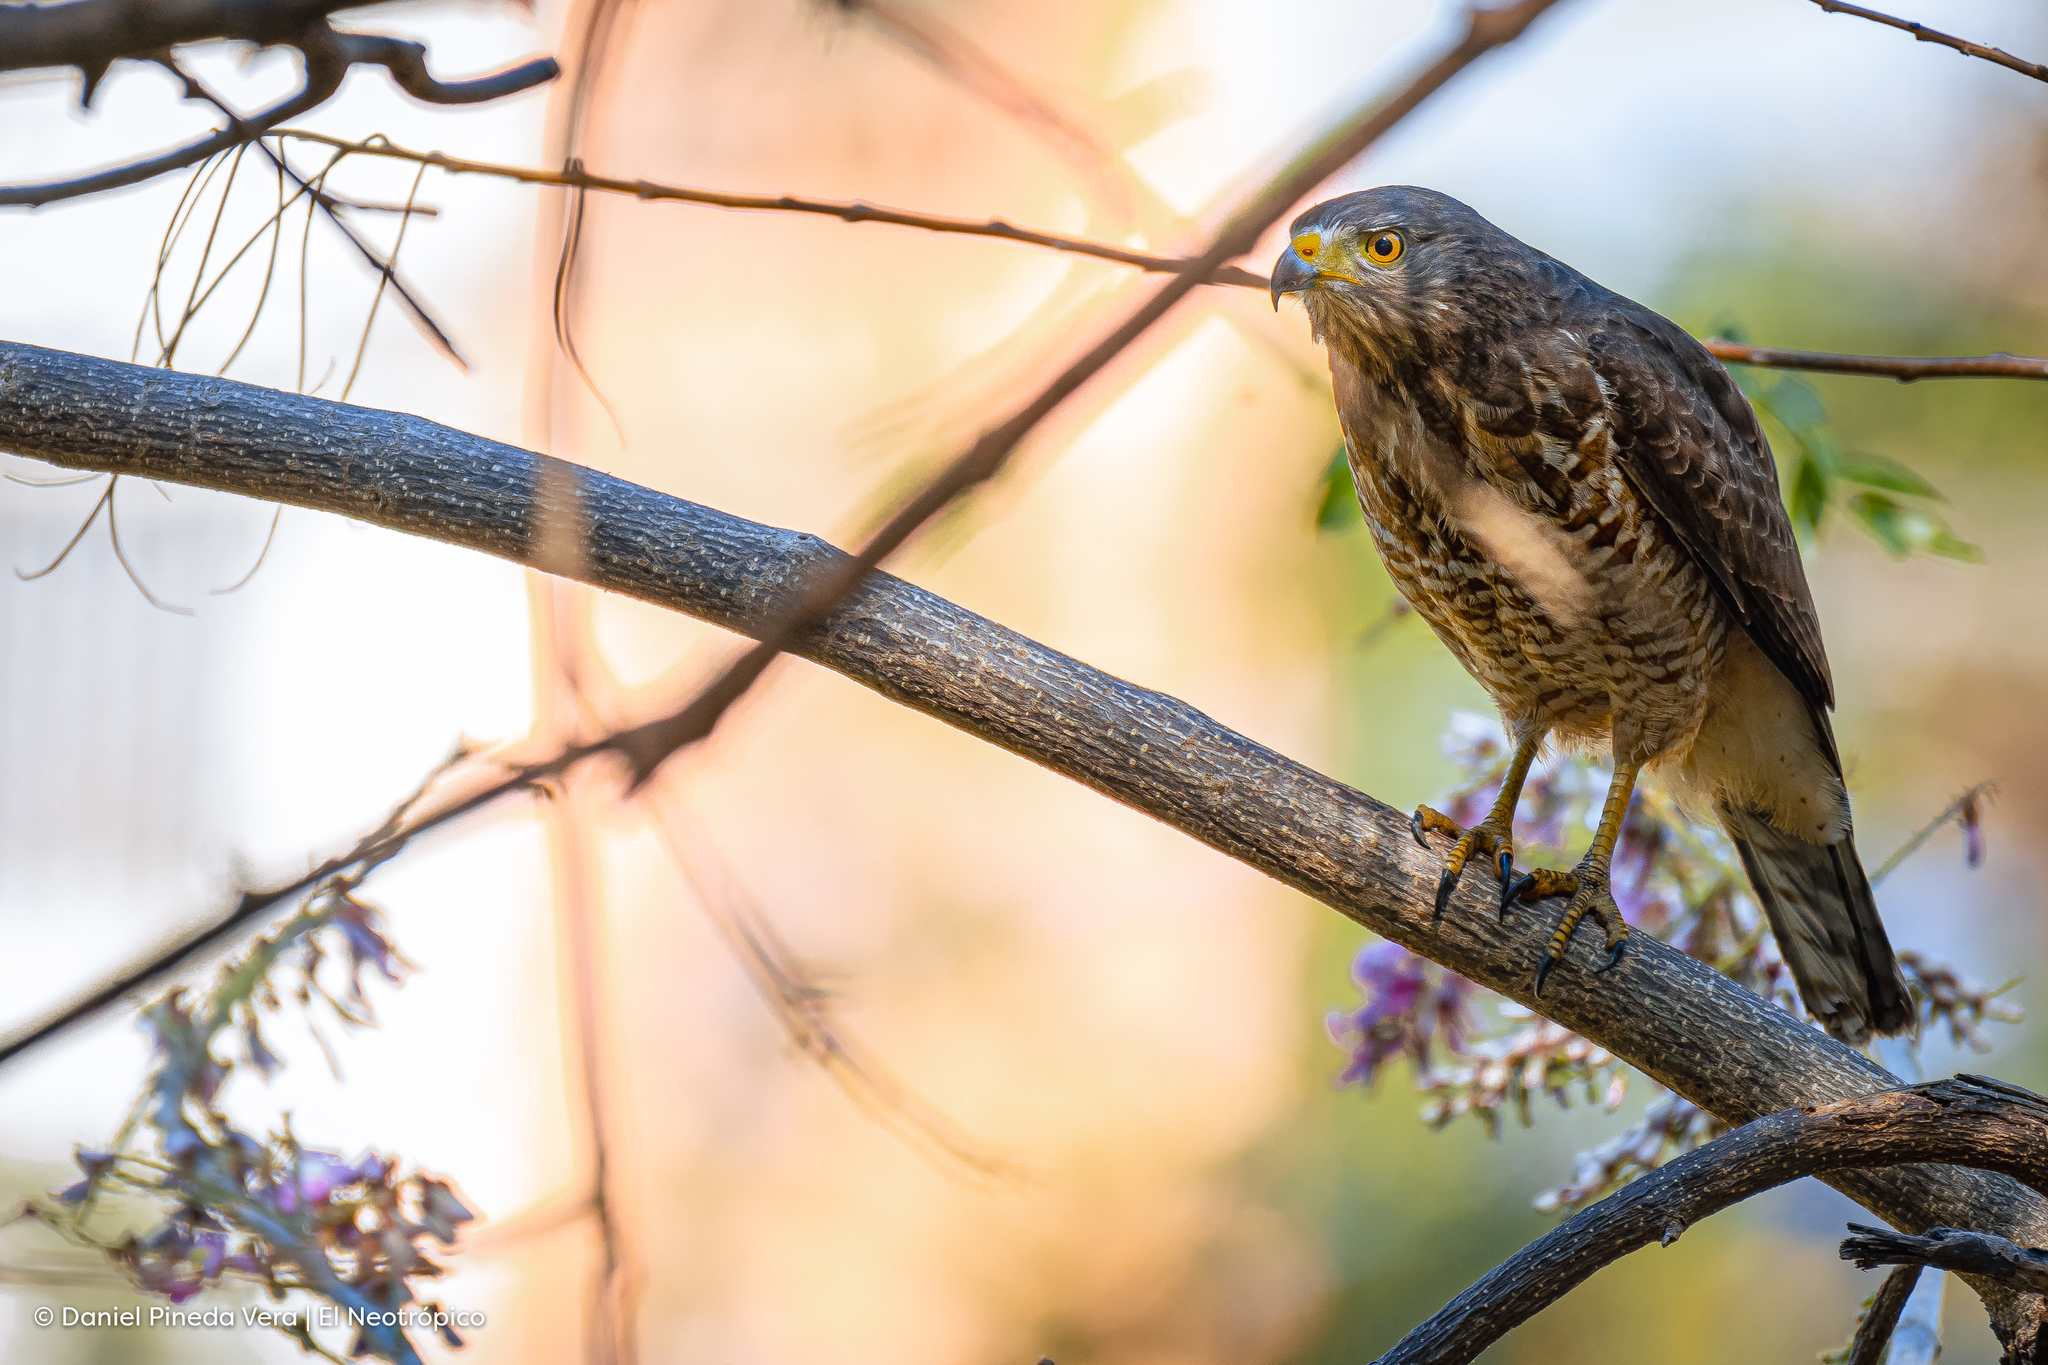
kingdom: Animalia
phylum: Chordata
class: Aves
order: Accipitriformes
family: Accipitridae
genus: Rupornis
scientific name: Rupornis magnirostris
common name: Roadside hawk
